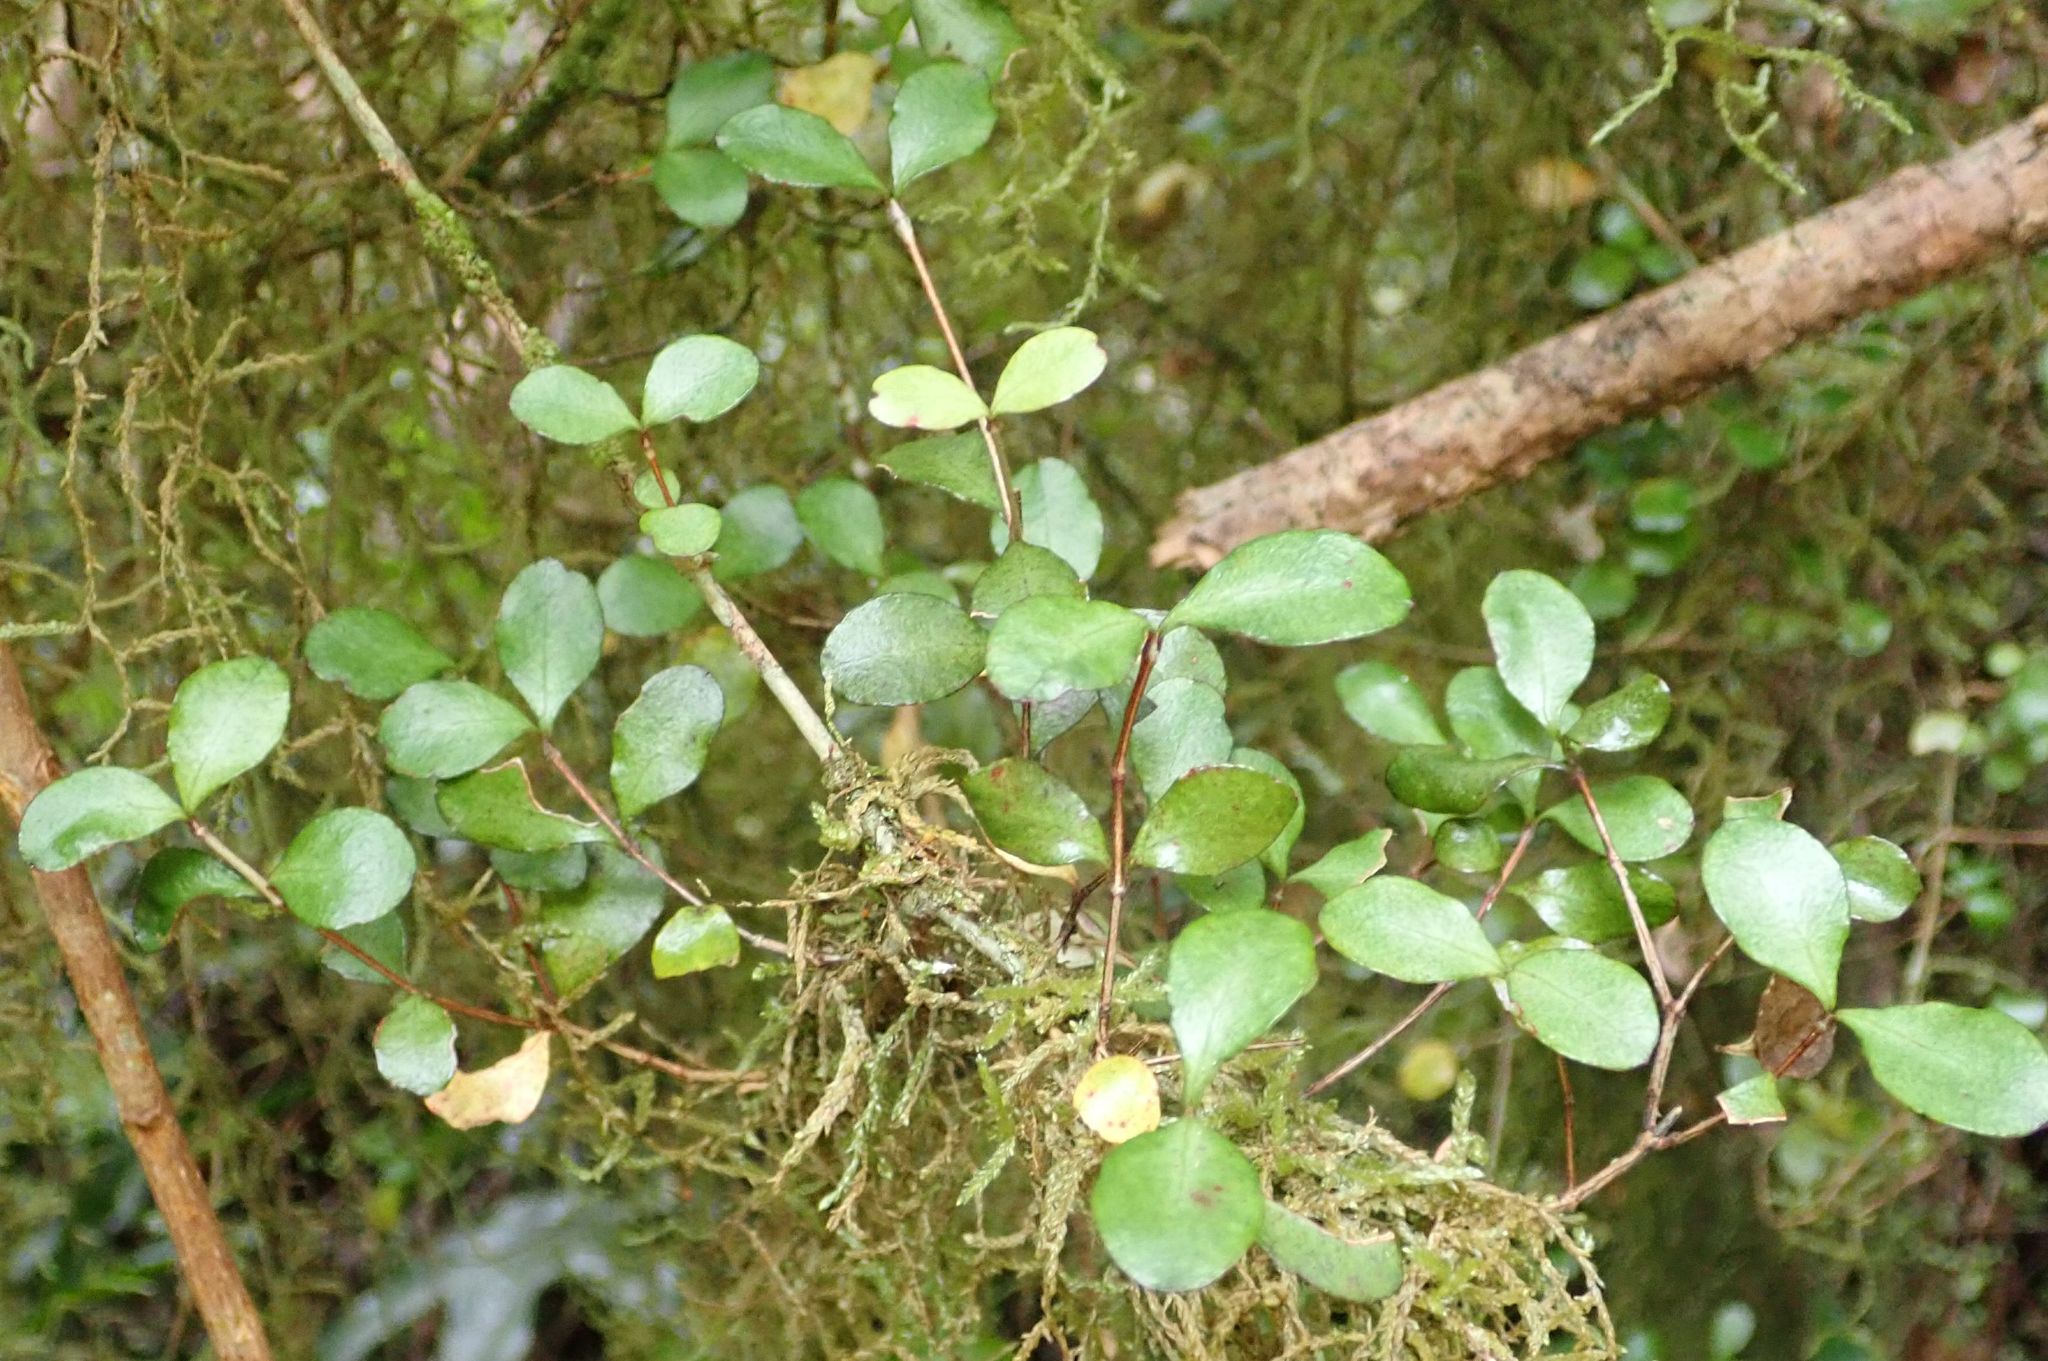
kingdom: Plantae
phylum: Tracheophyta
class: Magnoliopsida
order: Myrtales
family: Myrtaceae
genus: Neomyrtus
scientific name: Neomyrtus pedunculata
